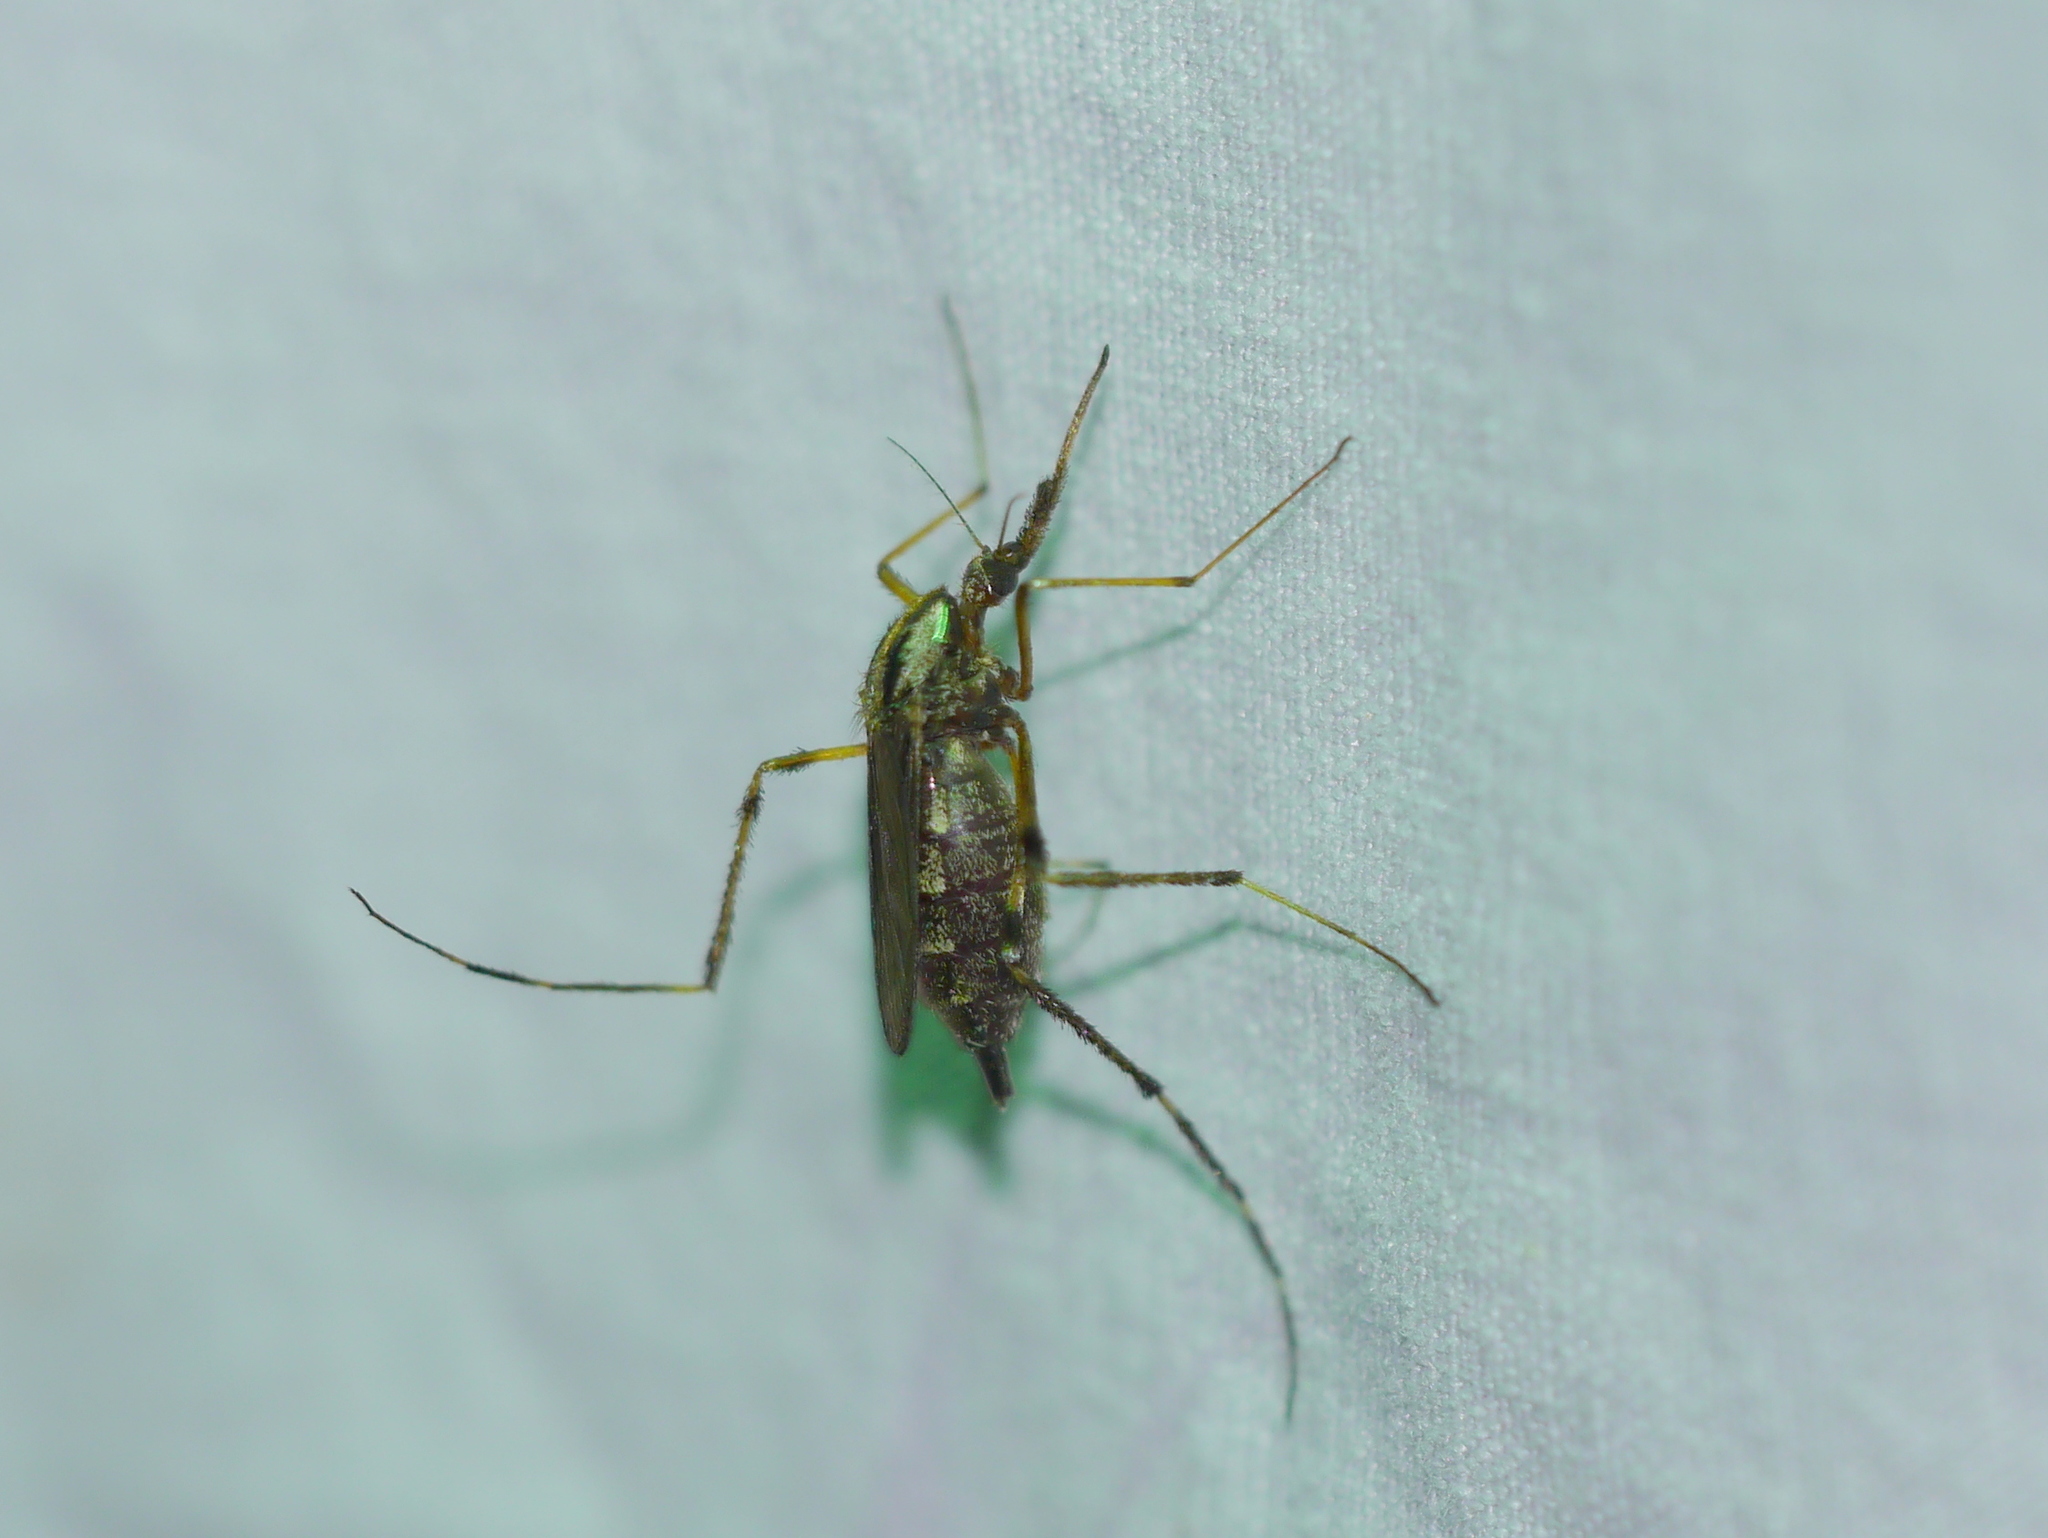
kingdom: Animalia
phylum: Arthropoda
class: Insecta
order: Diptera
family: Culicidae
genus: Psorophora
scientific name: Psorophora ciliata
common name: Gallinipper
